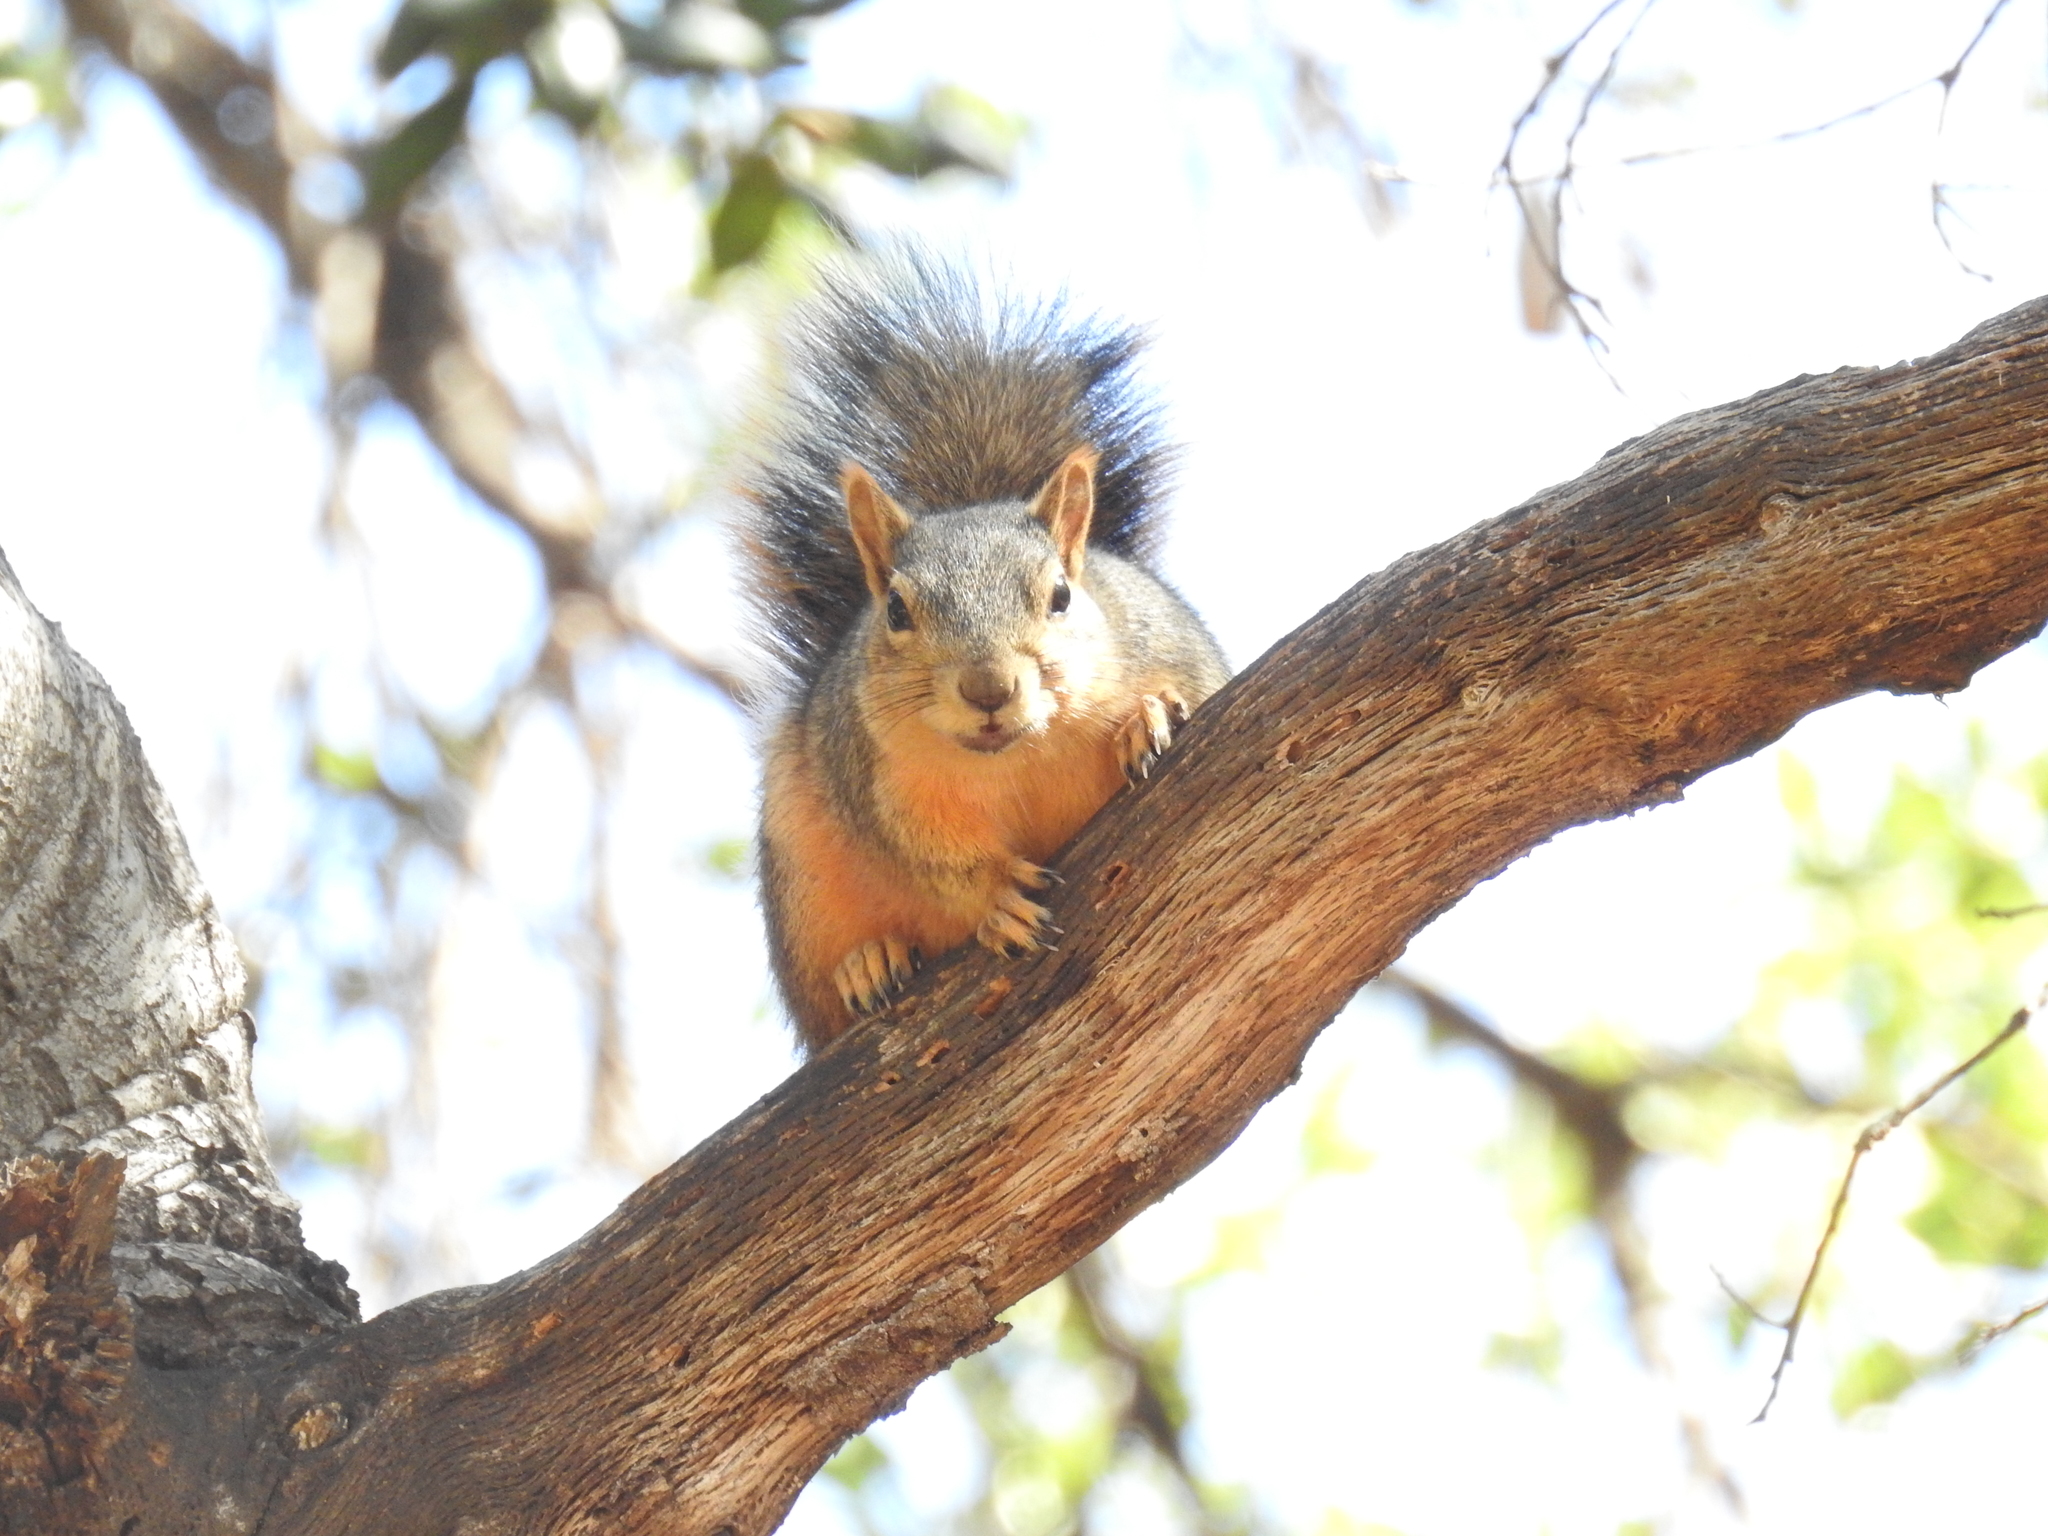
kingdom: Animalia
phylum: Chordata
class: Mammalia
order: Rodentia
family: Sciuridae
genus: Sciurus
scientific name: Sciurus niger
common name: Fox squirrel
